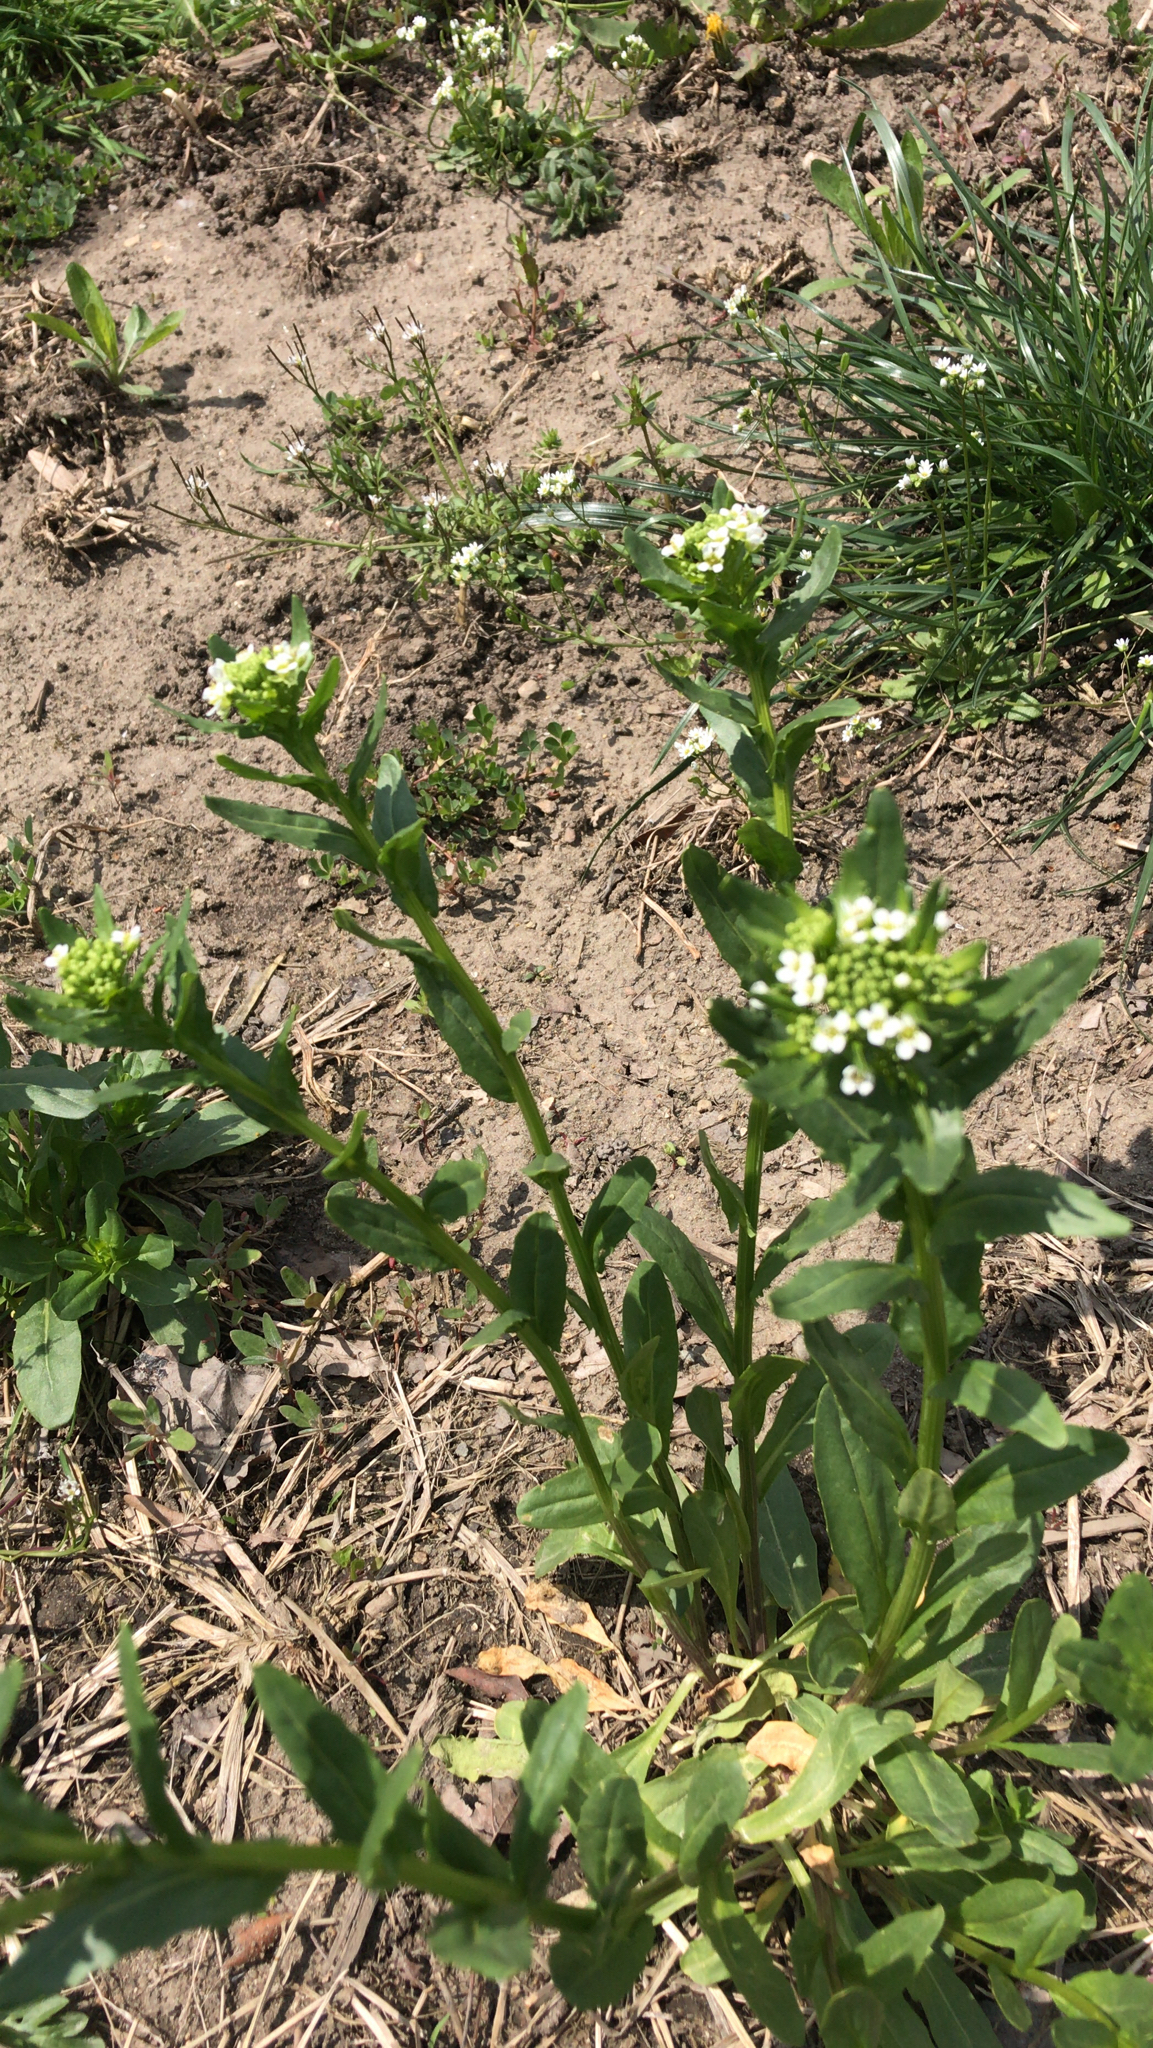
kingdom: Plantae
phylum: Tracheophyta
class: Magnoliopsida
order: Brassicales
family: Brassicaceae
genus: Thlaspi
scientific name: Thlaspi arvense
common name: Field pennycress
